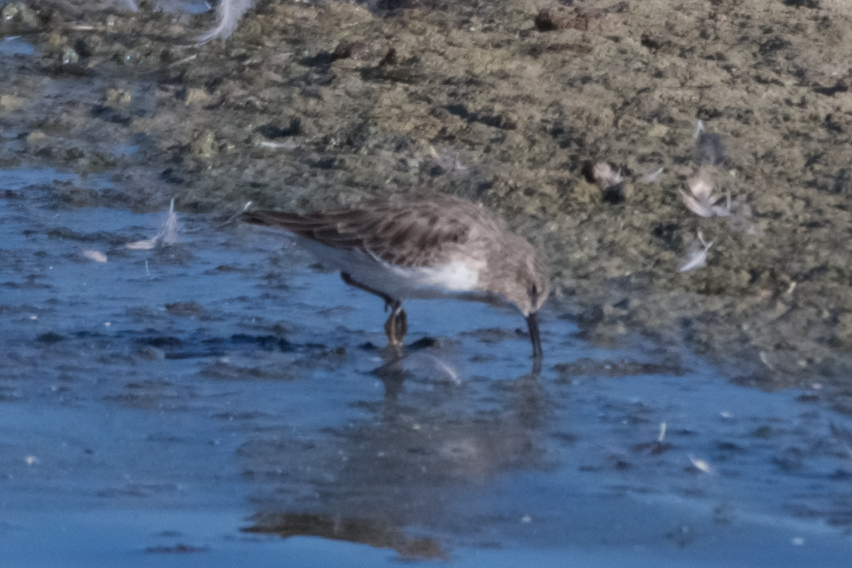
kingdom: Animalia
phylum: Chordata
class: Aves
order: Charadriiformes
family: Scolopacidae
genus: Calidris
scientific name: Calidris minutilla
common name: Least sandpiper
